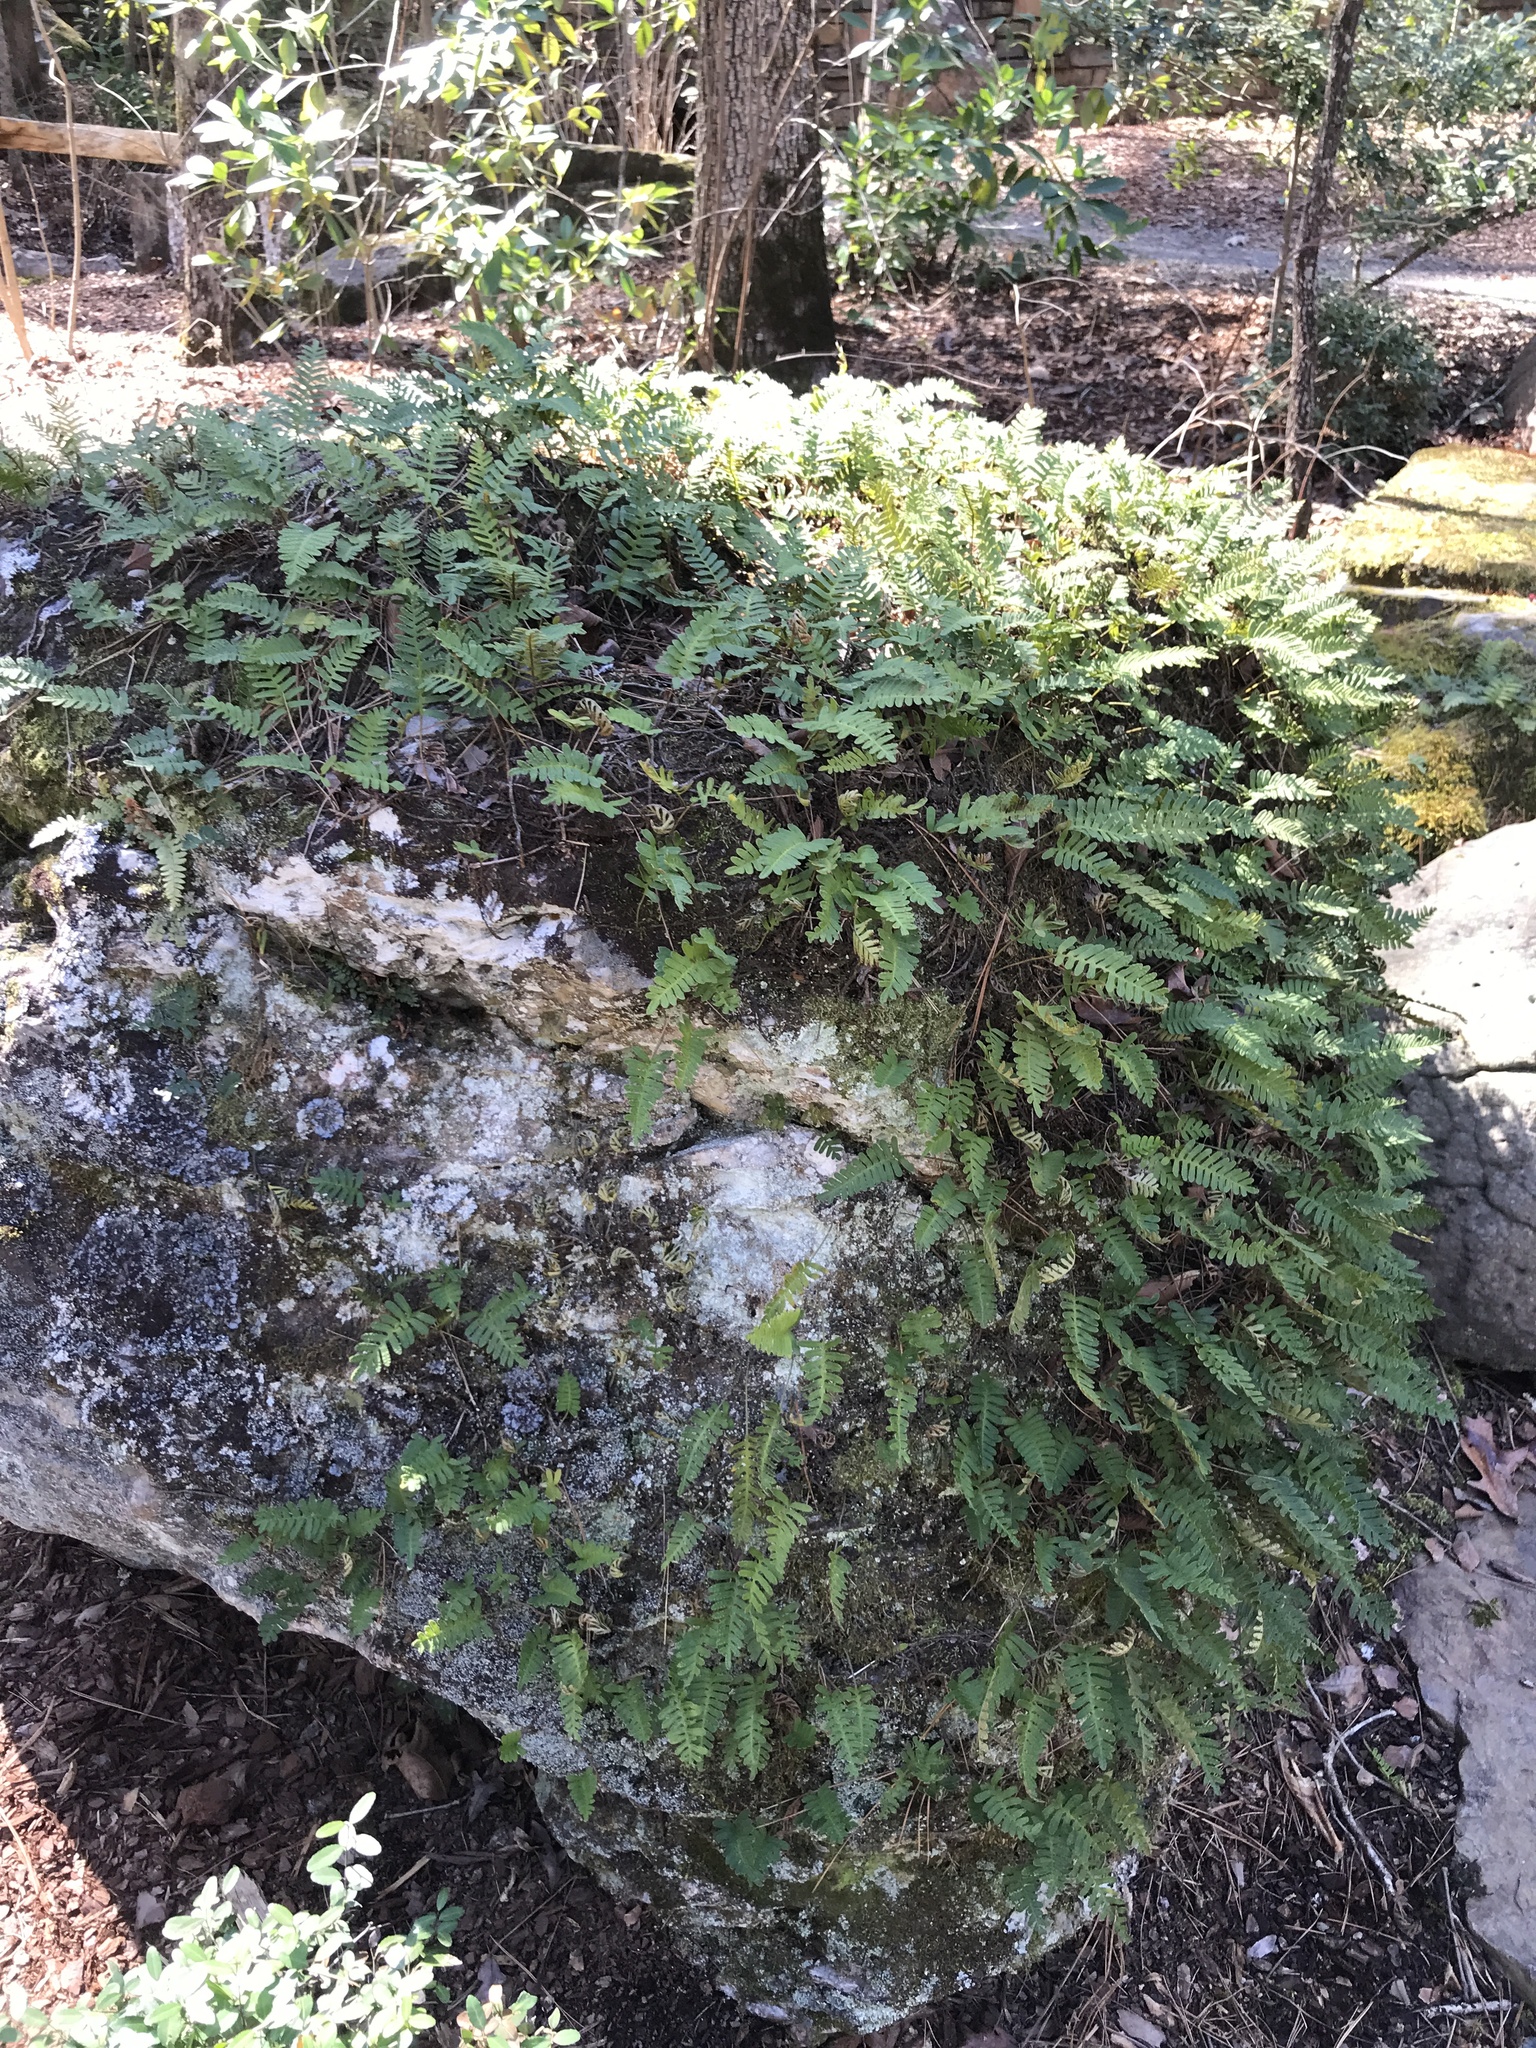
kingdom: Plantae
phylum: Tracheophyta
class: Polypodiopsida
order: Polypodiales
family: Polypodiaceae
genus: Pleopeltis
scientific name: Pleopeltis michauxiana
